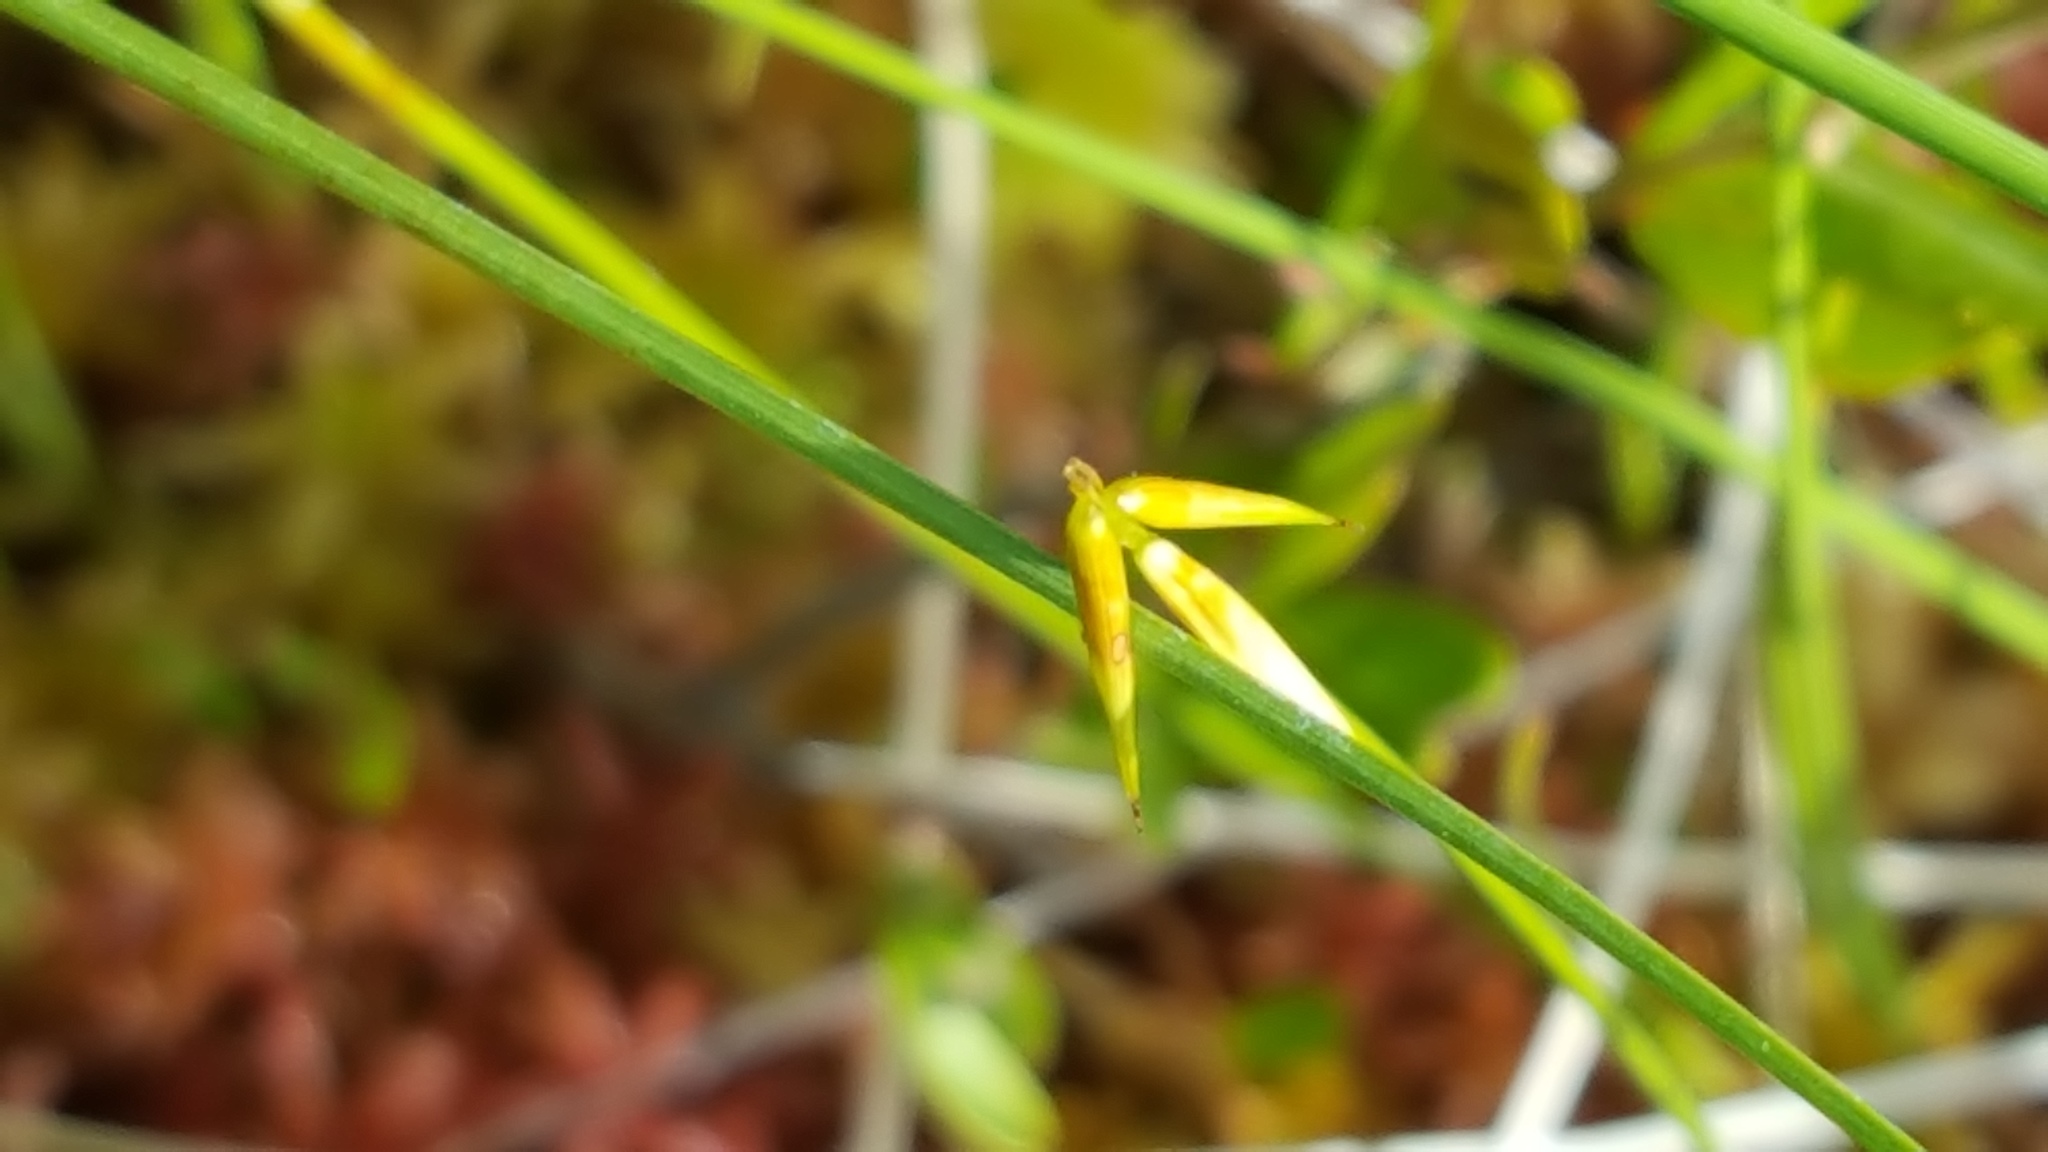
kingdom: Plantae
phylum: Tracheophyta
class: Liliopsida
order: Poales
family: Cyperaceae
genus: Carex
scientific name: Carex pauciflora
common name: Few-flowered sedge
